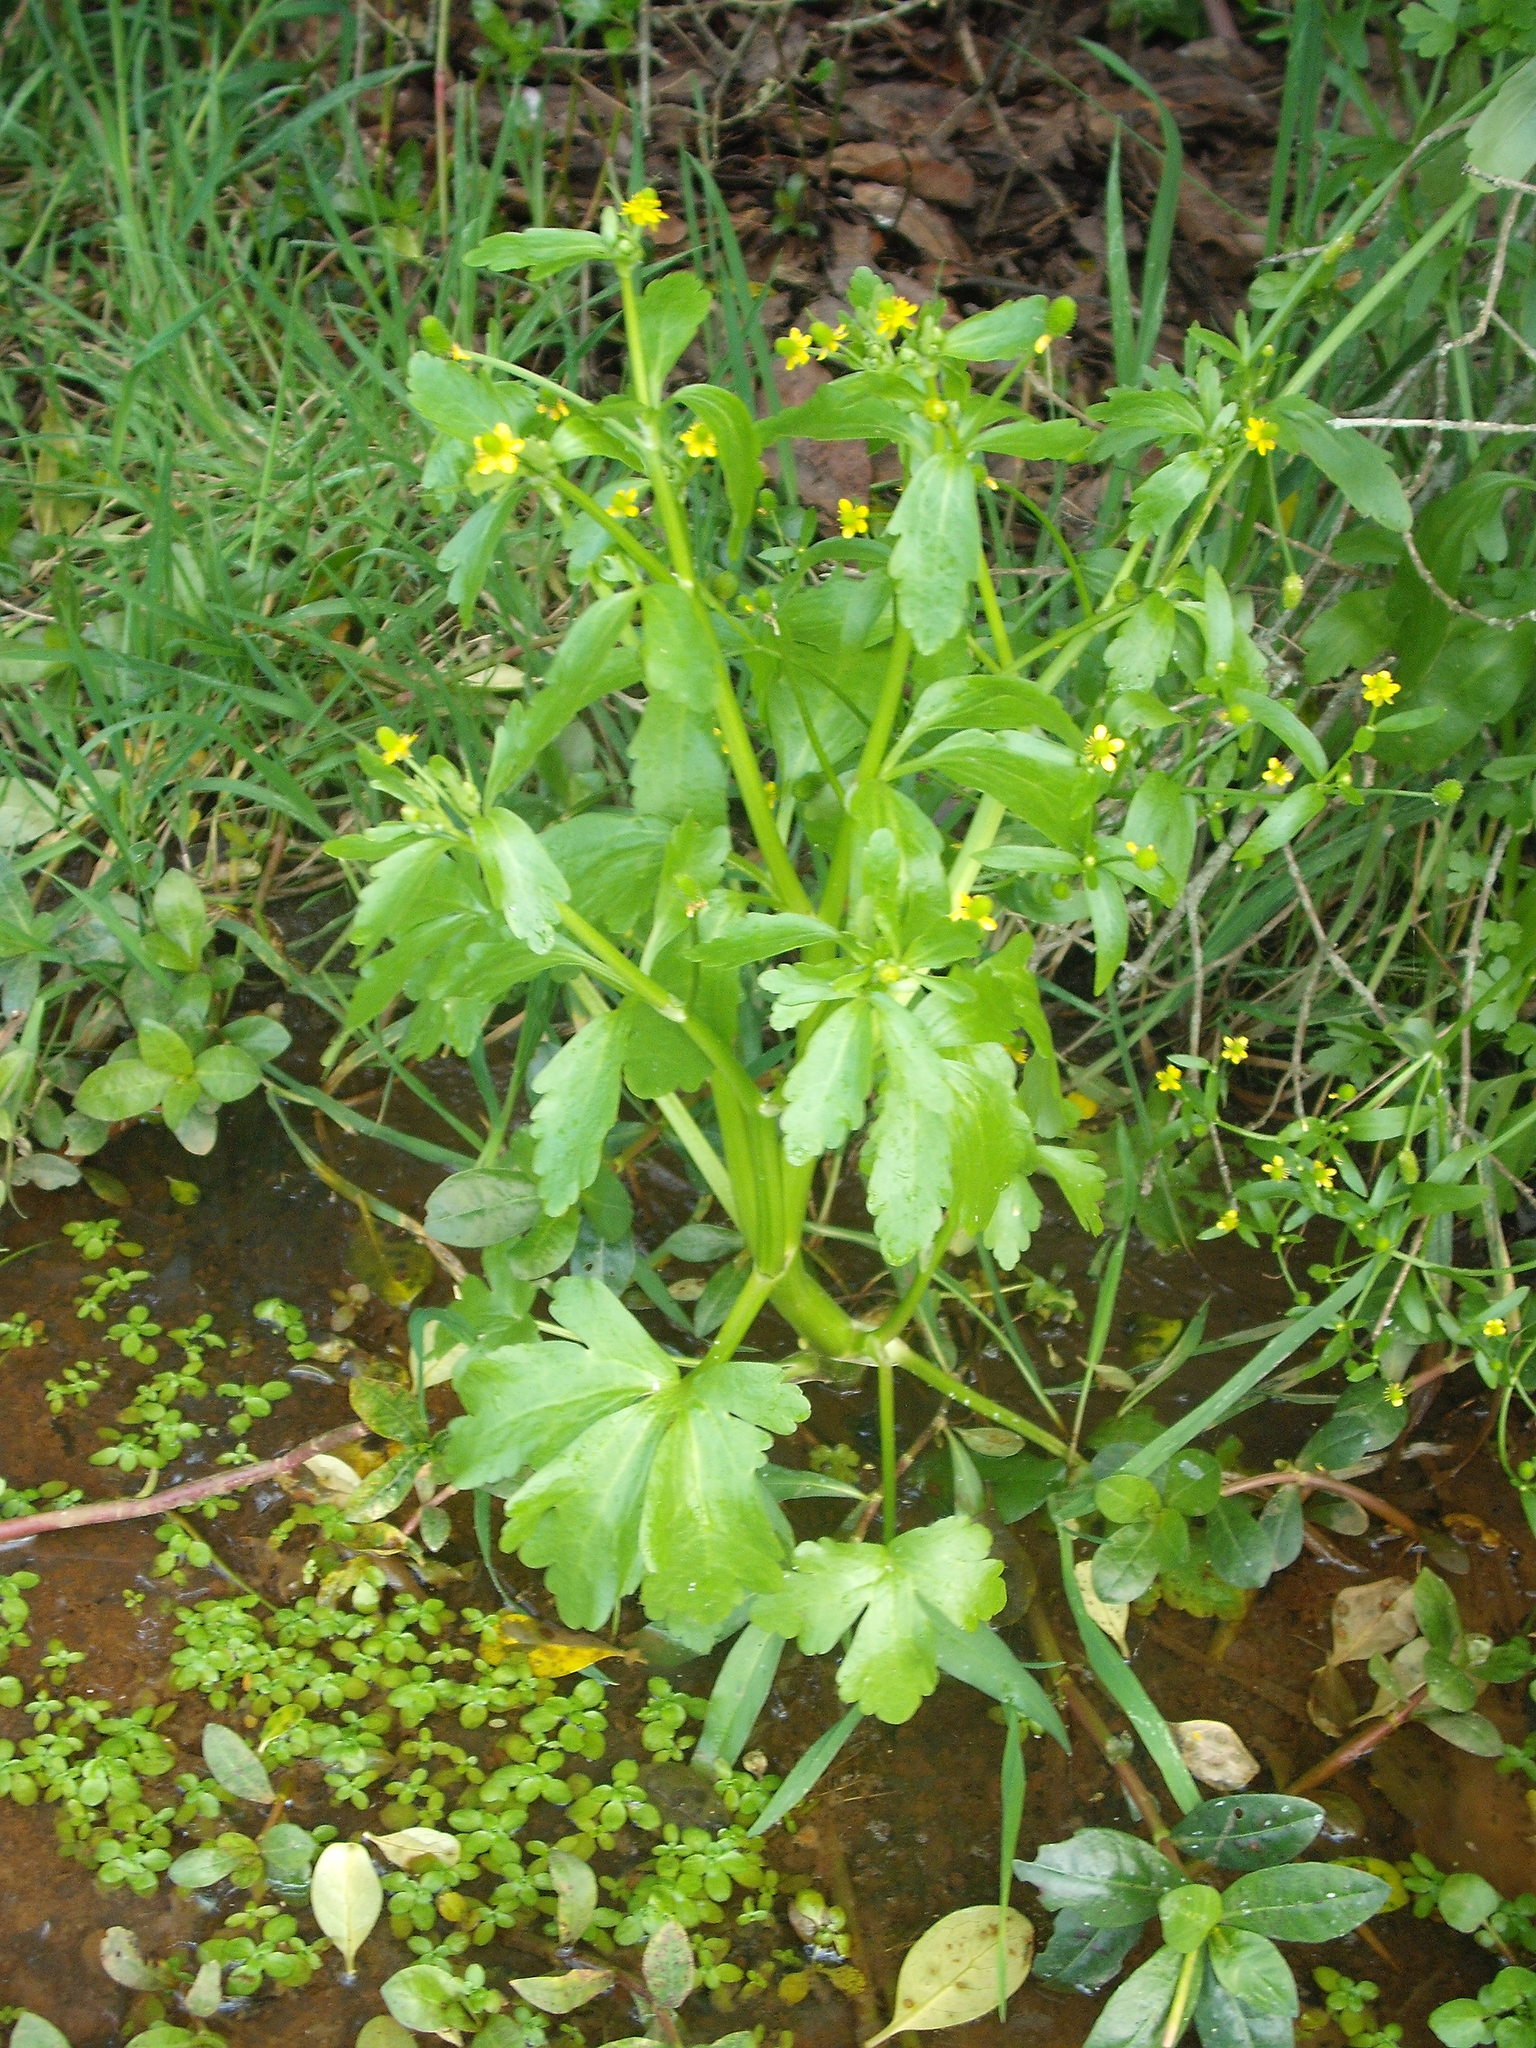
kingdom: Plantae
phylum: Tracheophyta
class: Magnoliopsida
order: Ranunculales
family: Ranunculaceae
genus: Ranunculus
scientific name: Ranunculus sceleratus
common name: Celery-leaved buttercup
